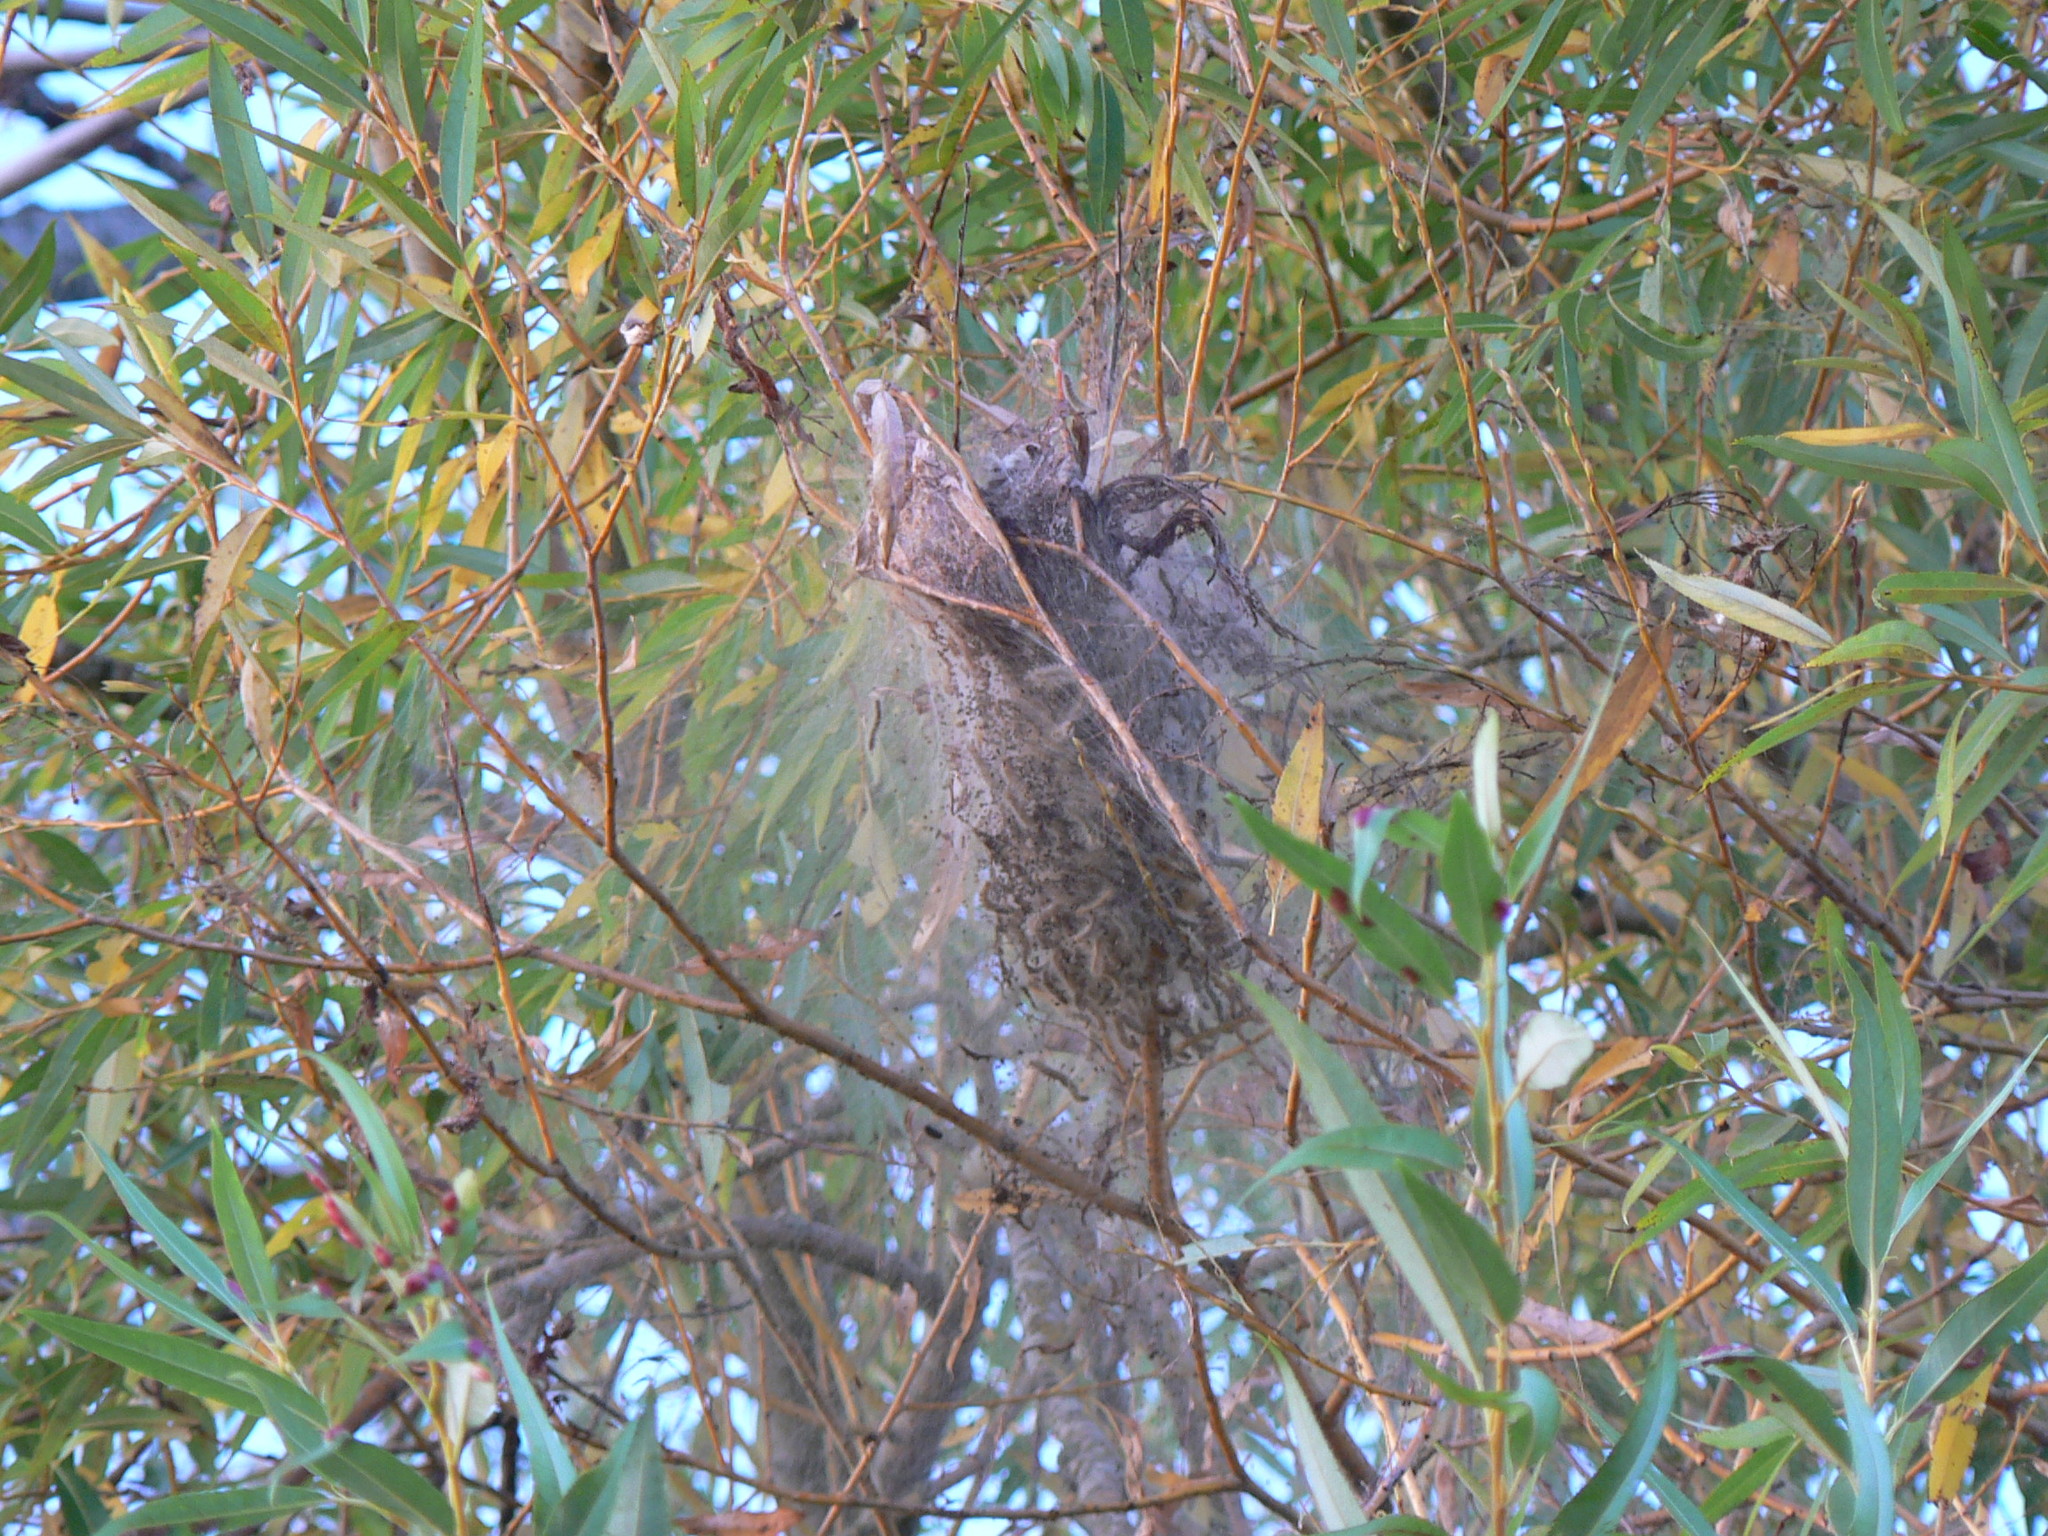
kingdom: Animalia
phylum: Arthropoda
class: Insecta
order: Lepidoptera
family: Erebidae
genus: Hyphantria
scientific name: Hyphantria cunea
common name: American white moth
